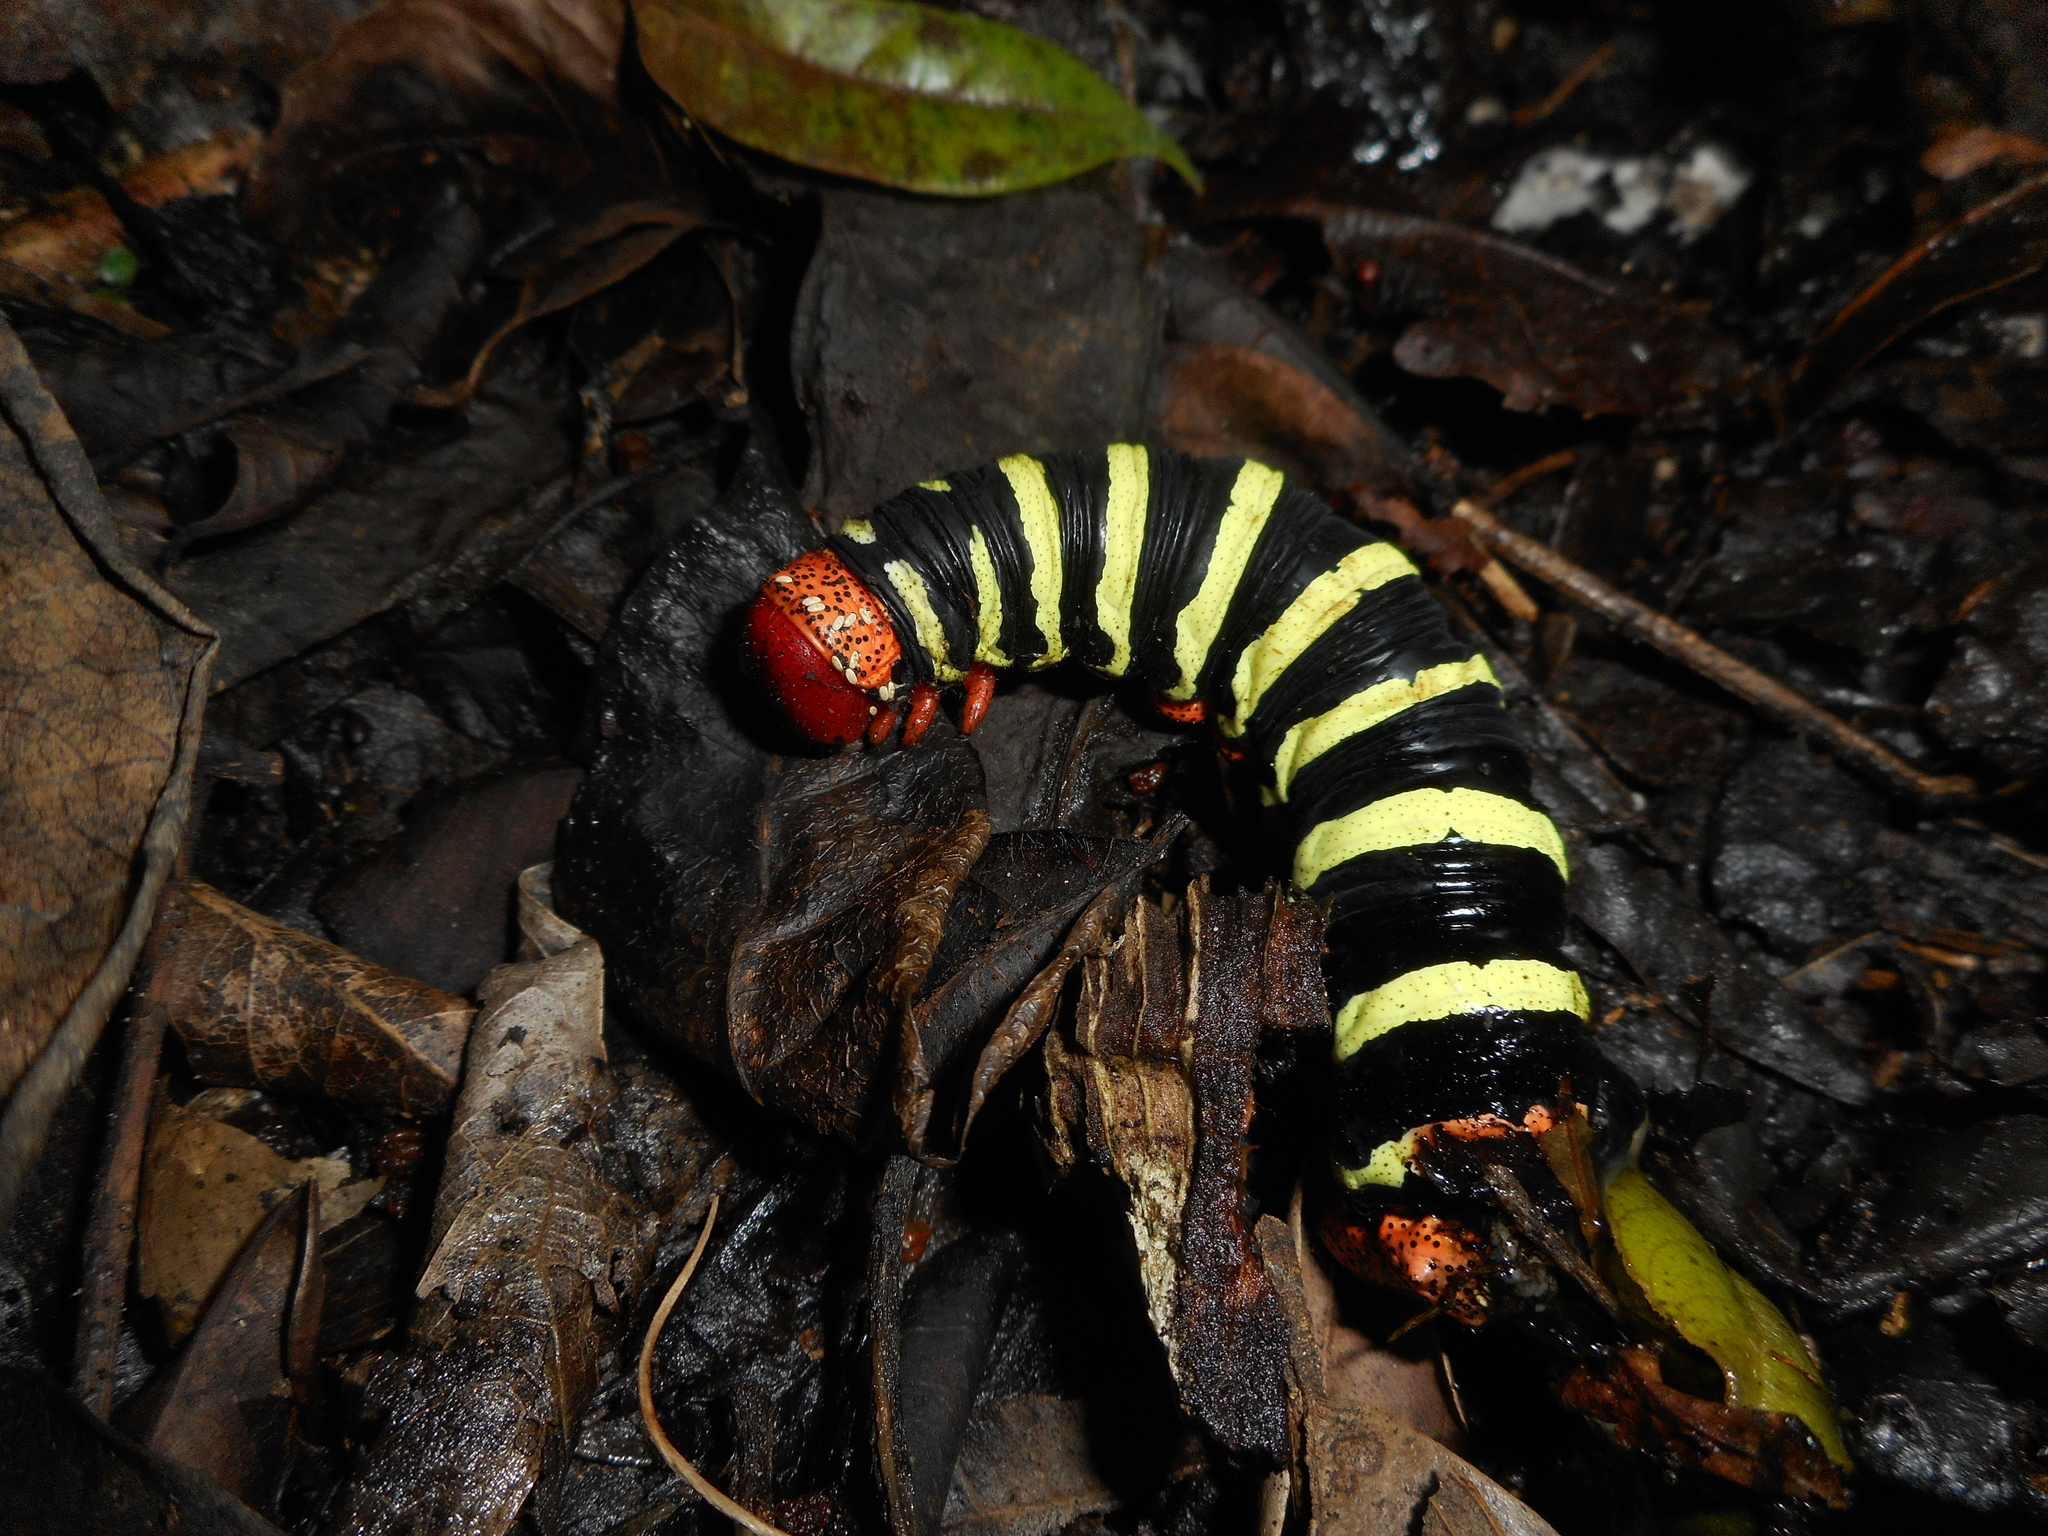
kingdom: Animalia
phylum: Arthropoda
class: Insecta
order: Lepidoptera
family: Sphingidae
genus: Pseudosphinx
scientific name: Pseudosphinx tetrio
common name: Tetrio sphinx
